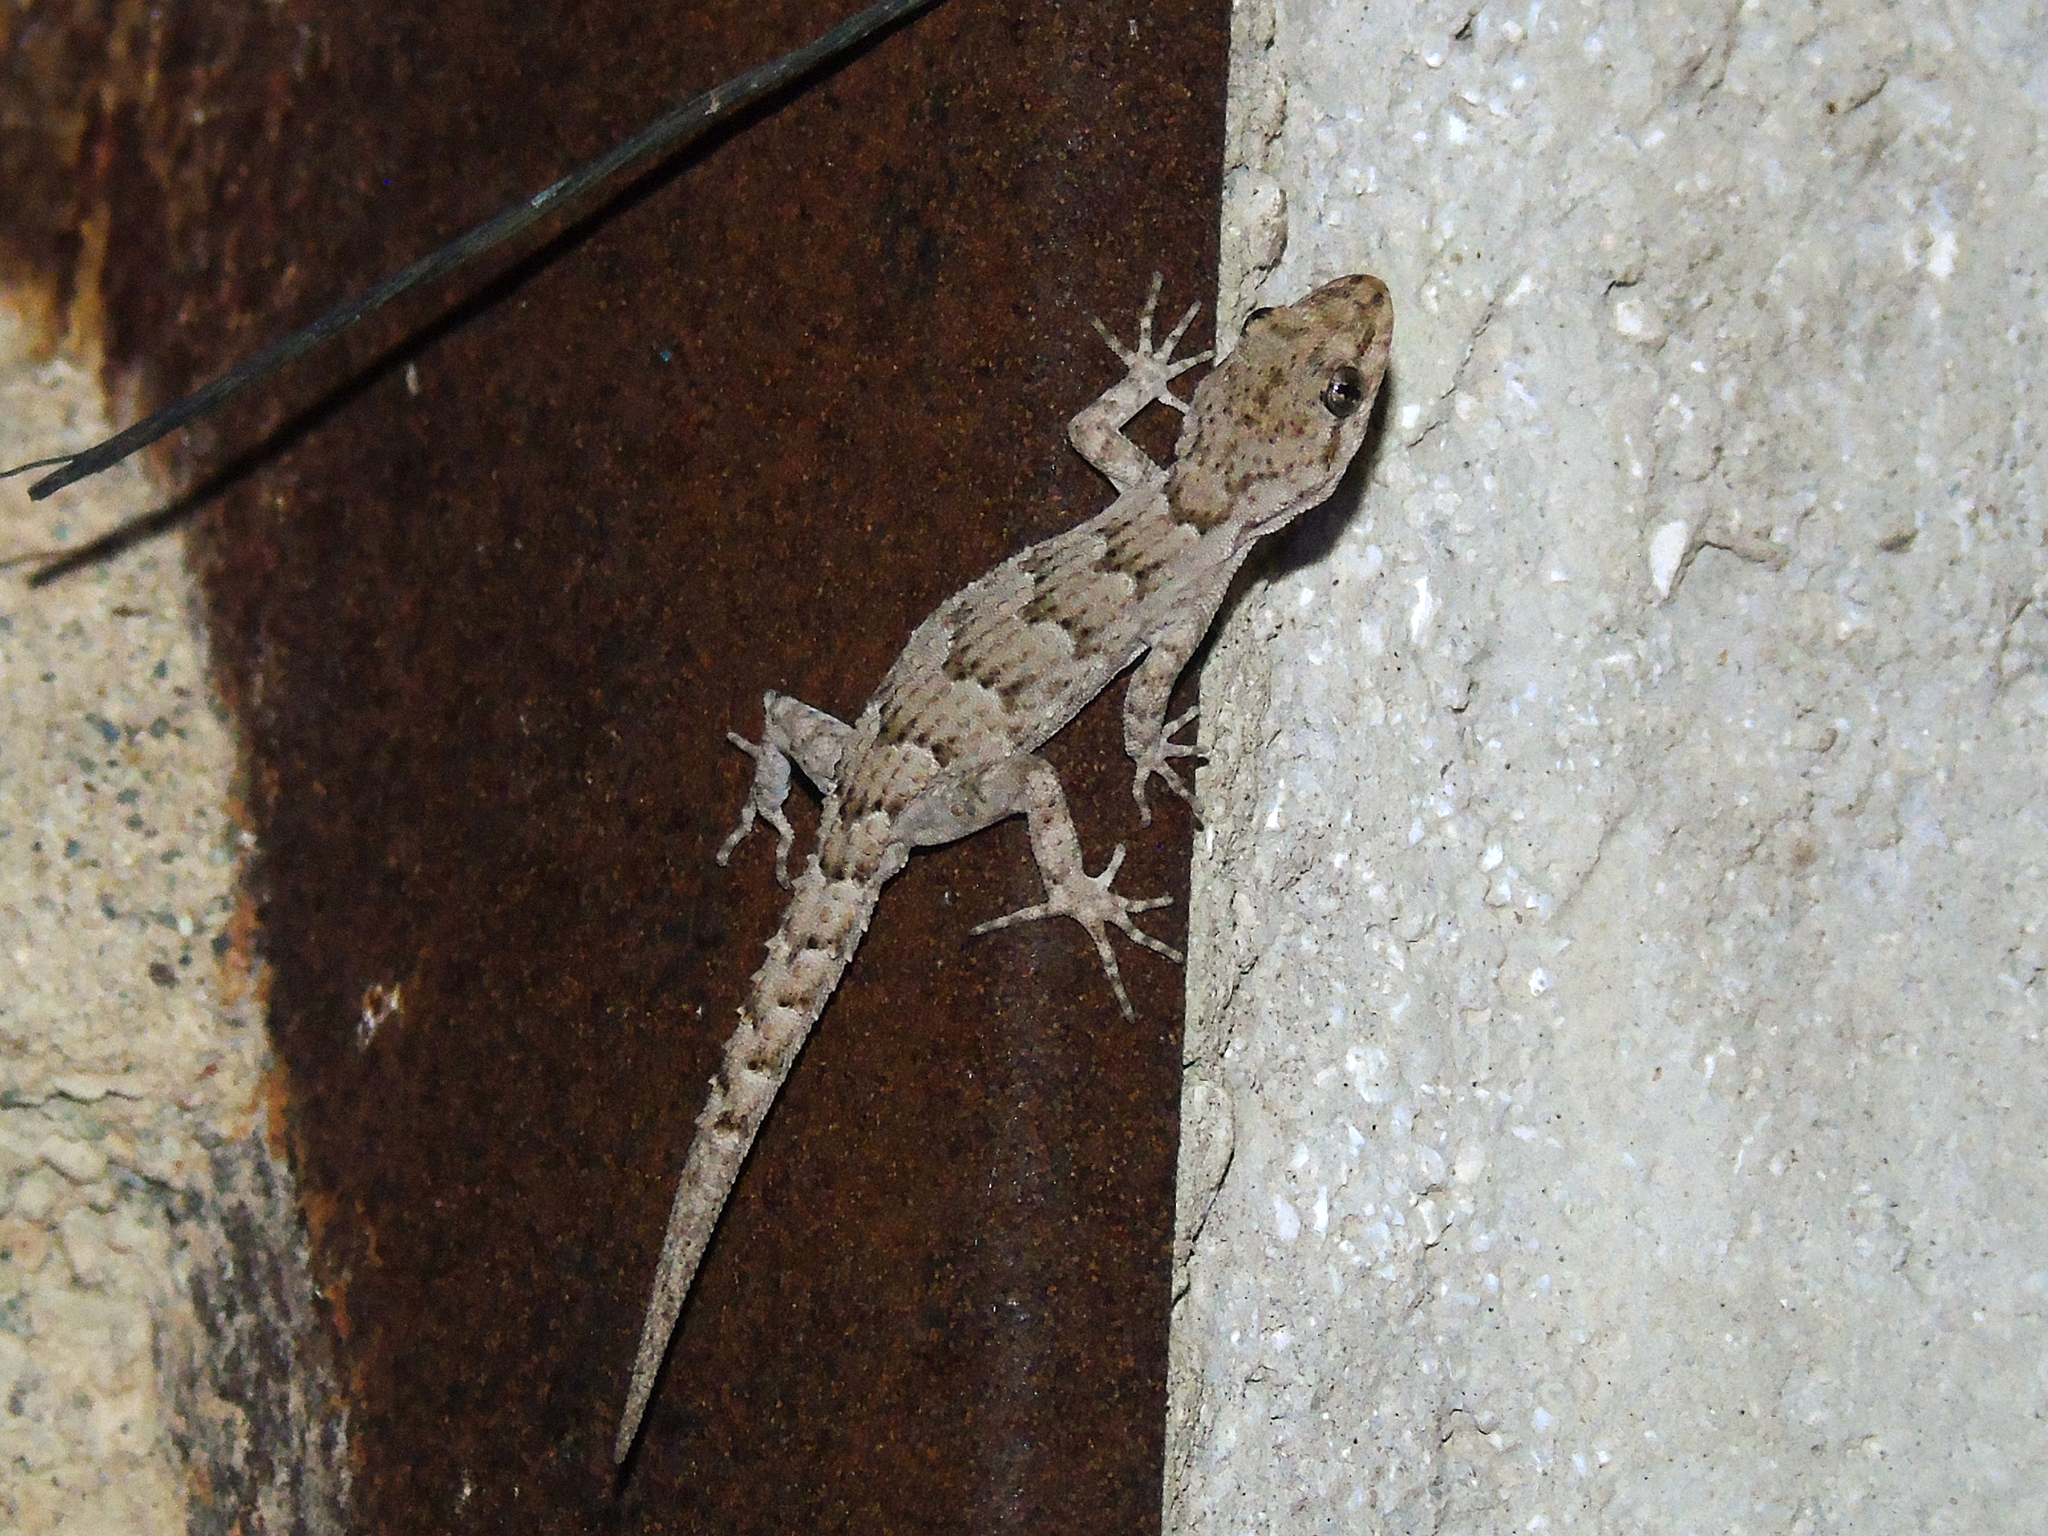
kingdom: Animalia
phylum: Chordata
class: Squamata
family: Gekkonidae
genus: Mediodactylus
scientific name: Mediodactylus kotschyi
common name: Kotschy's gecko
